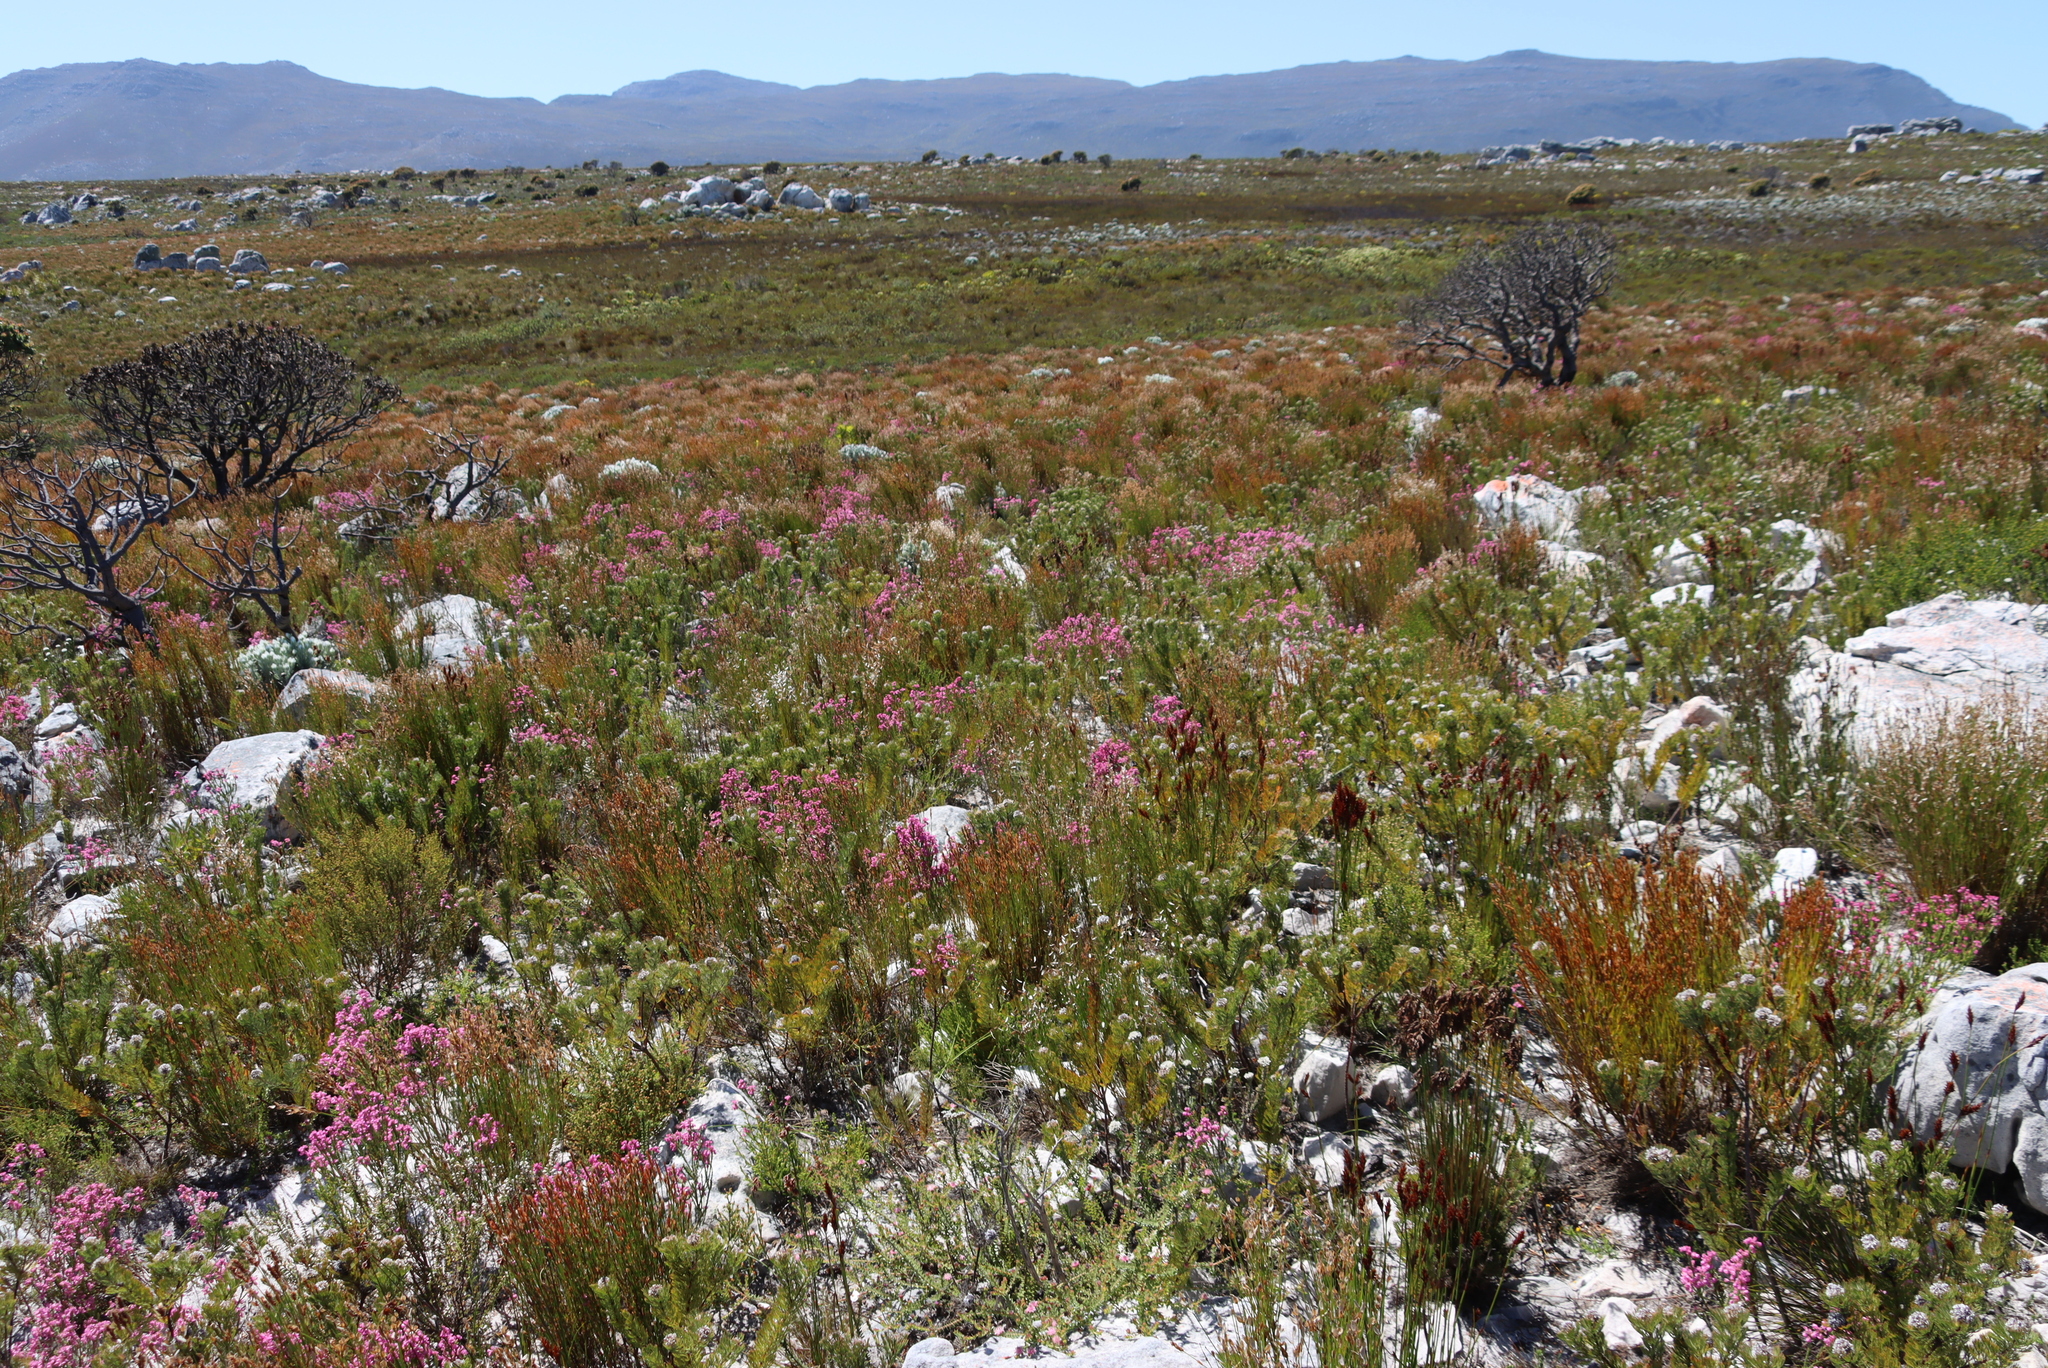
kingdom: Plantae
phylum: Tracheophyta
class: Magnoliopsida
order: Ericales
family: Ericaceae
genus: Erica
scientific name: Erica corifolia
